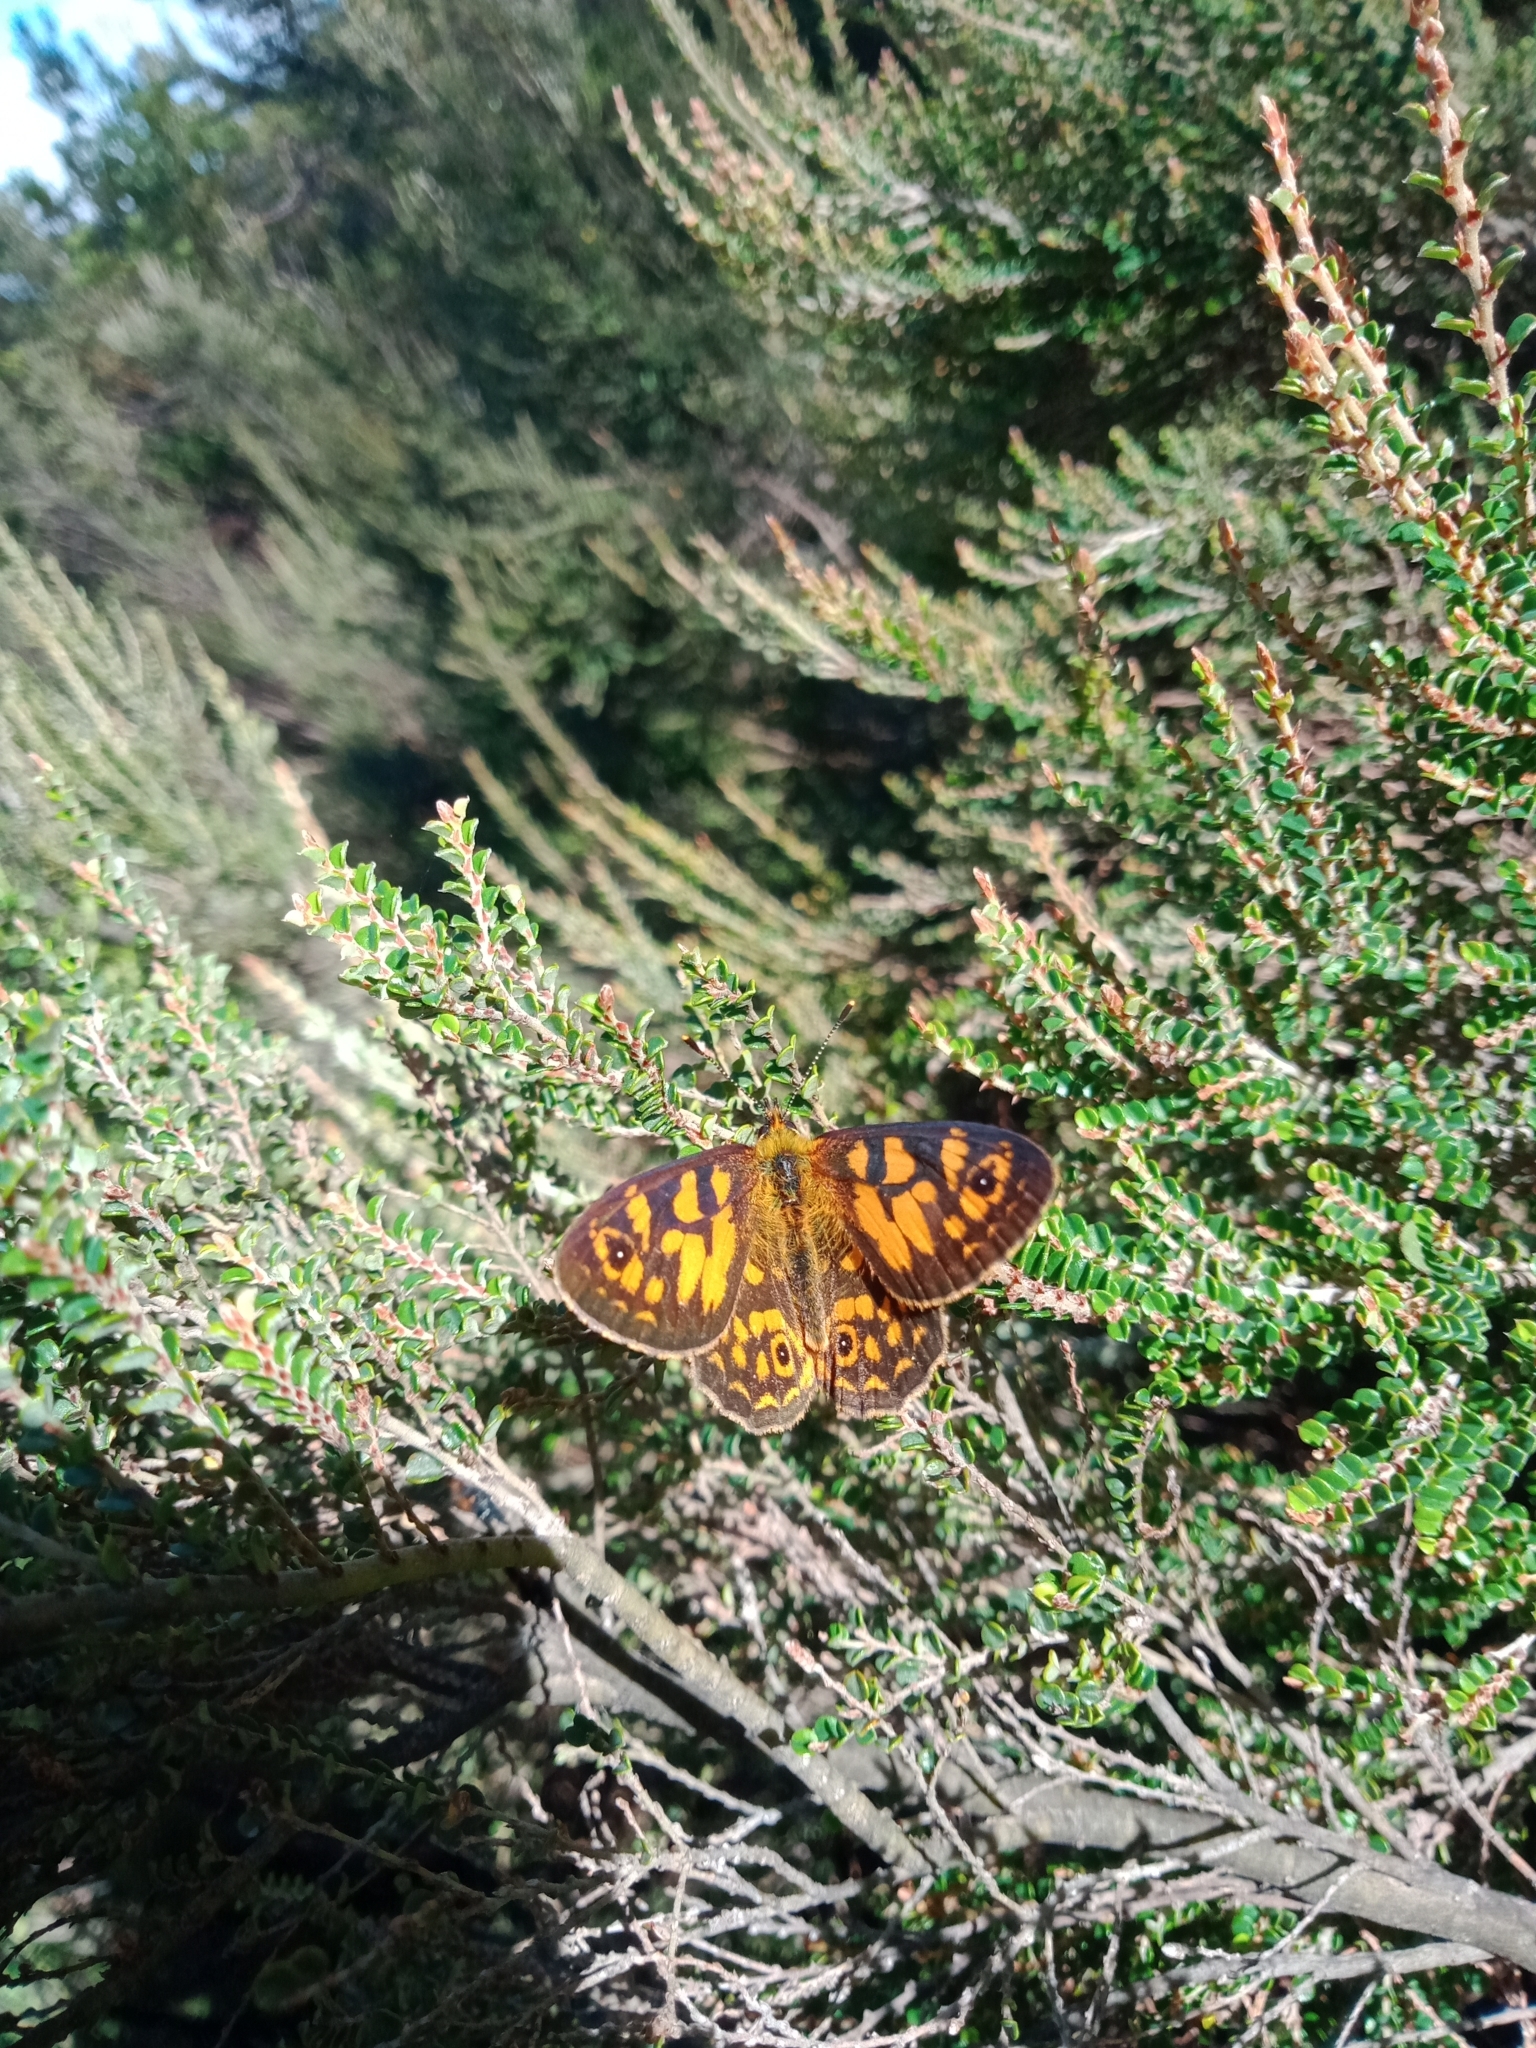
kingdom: Animalia
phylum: Arthropoda
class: Insecta
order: Lepidoptera
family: Nymphalidae
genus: Oreixenica
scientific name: Oreixenica latialis
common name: Alpine silver xenica
